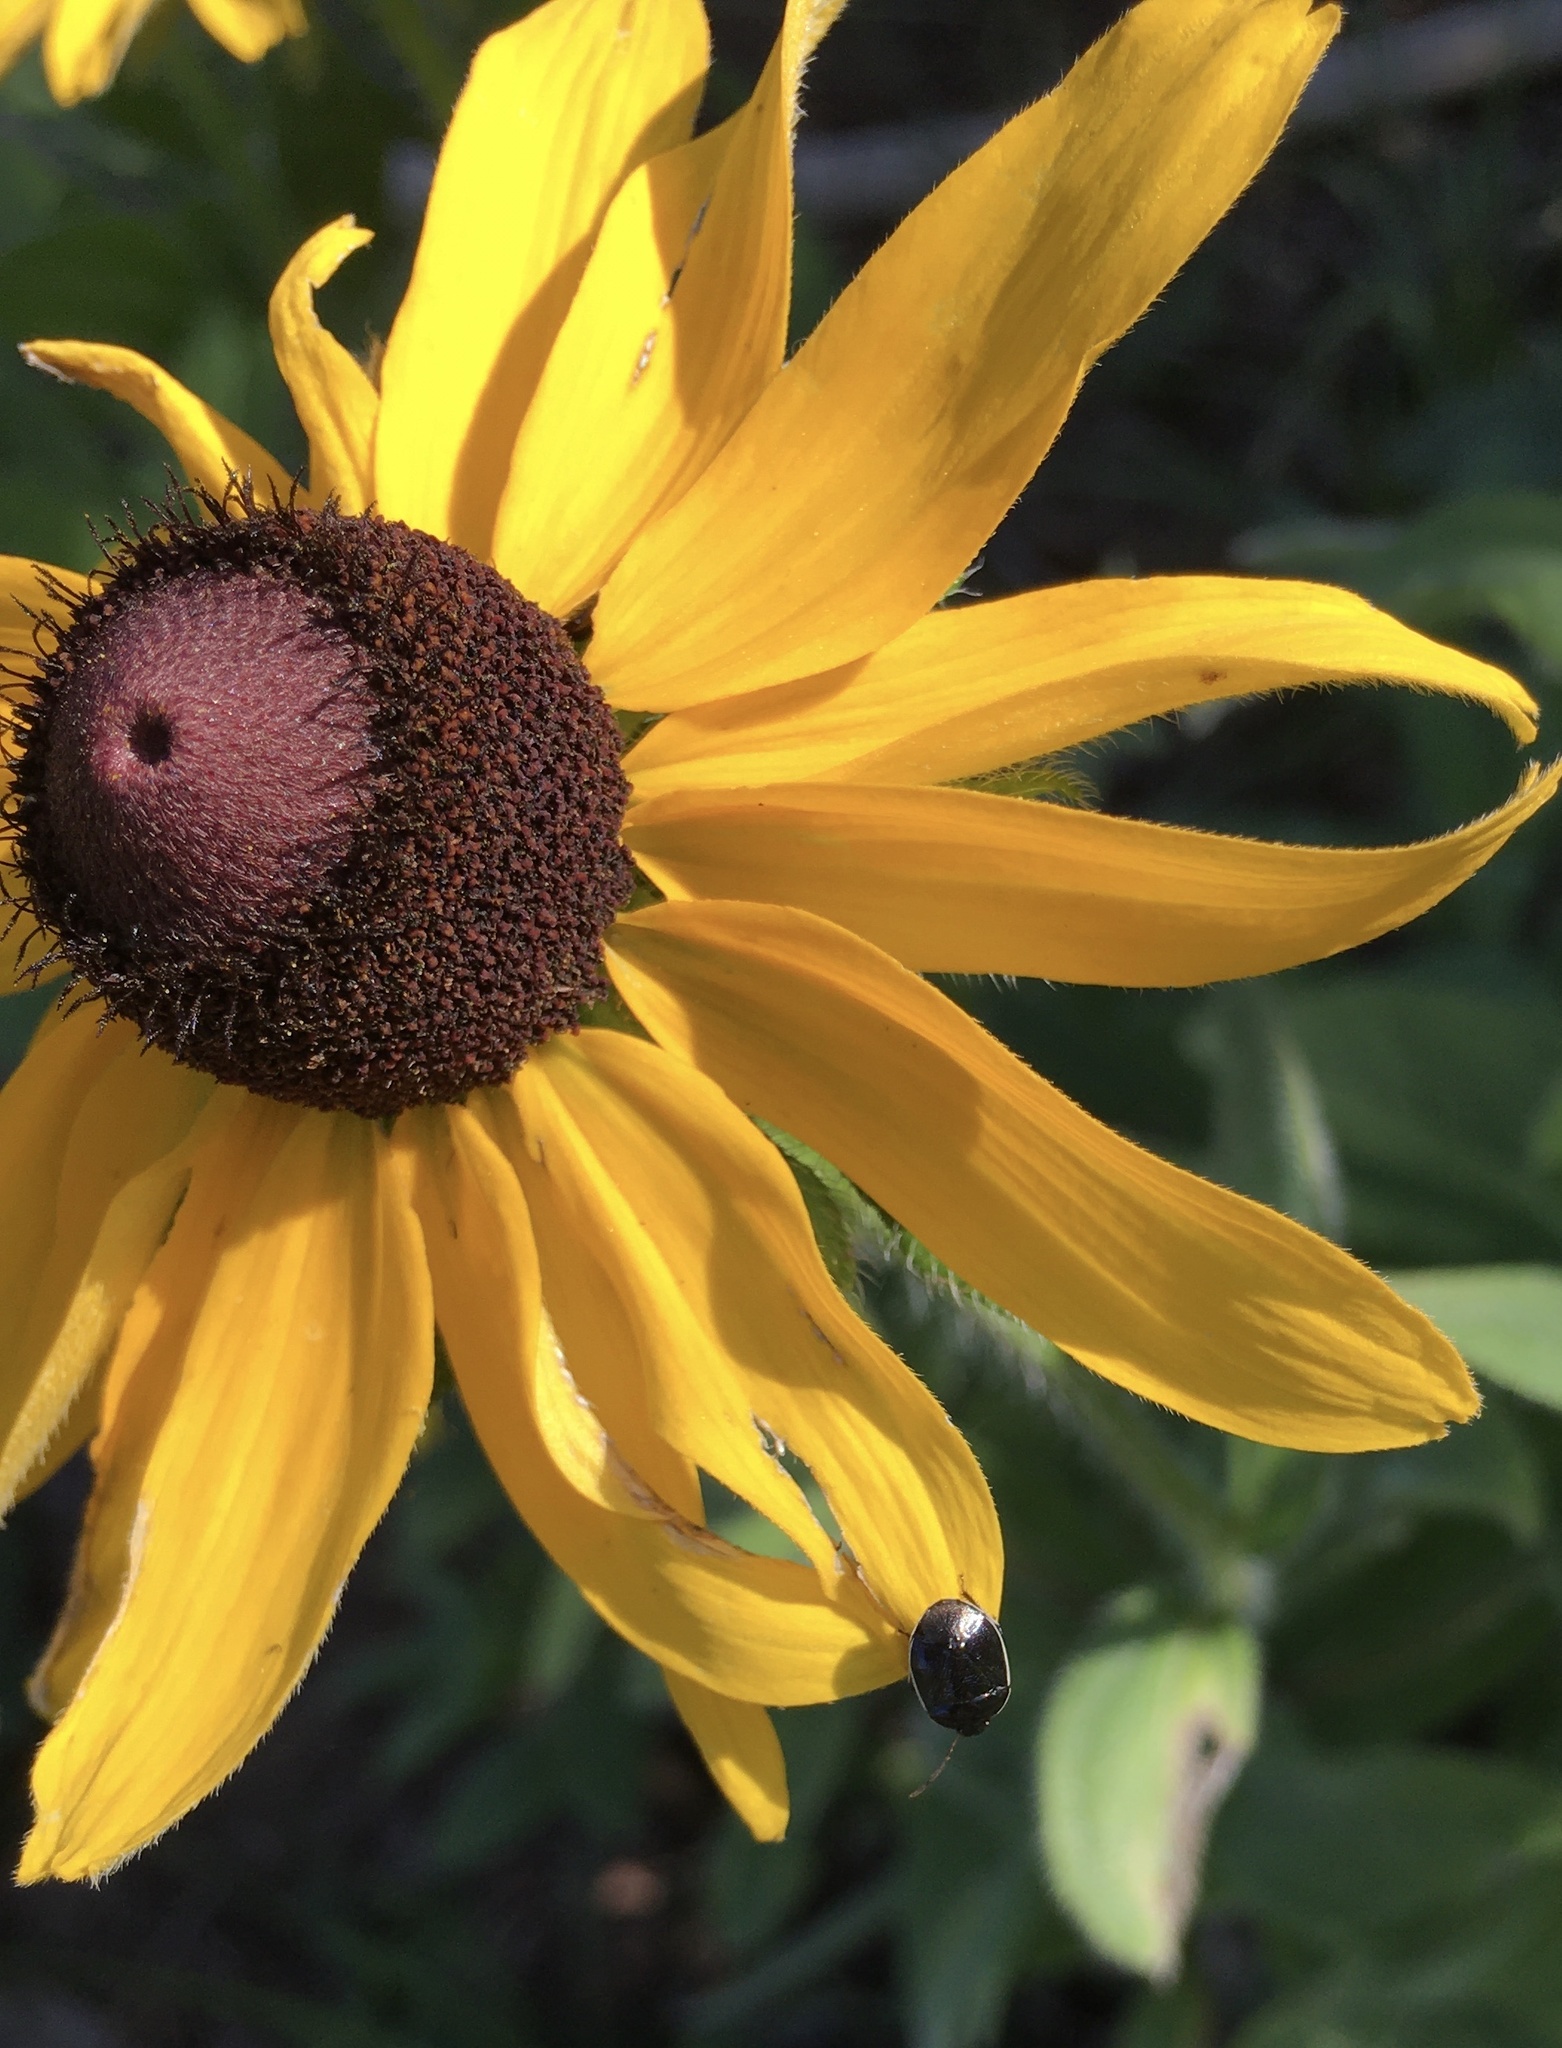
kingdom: Animalia
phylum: Arthropoda
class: Insecta
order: Hemiptera
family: Cydnidae
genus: Sehirus
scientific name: Sehirus cinctus
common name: White-margined burrower bug
